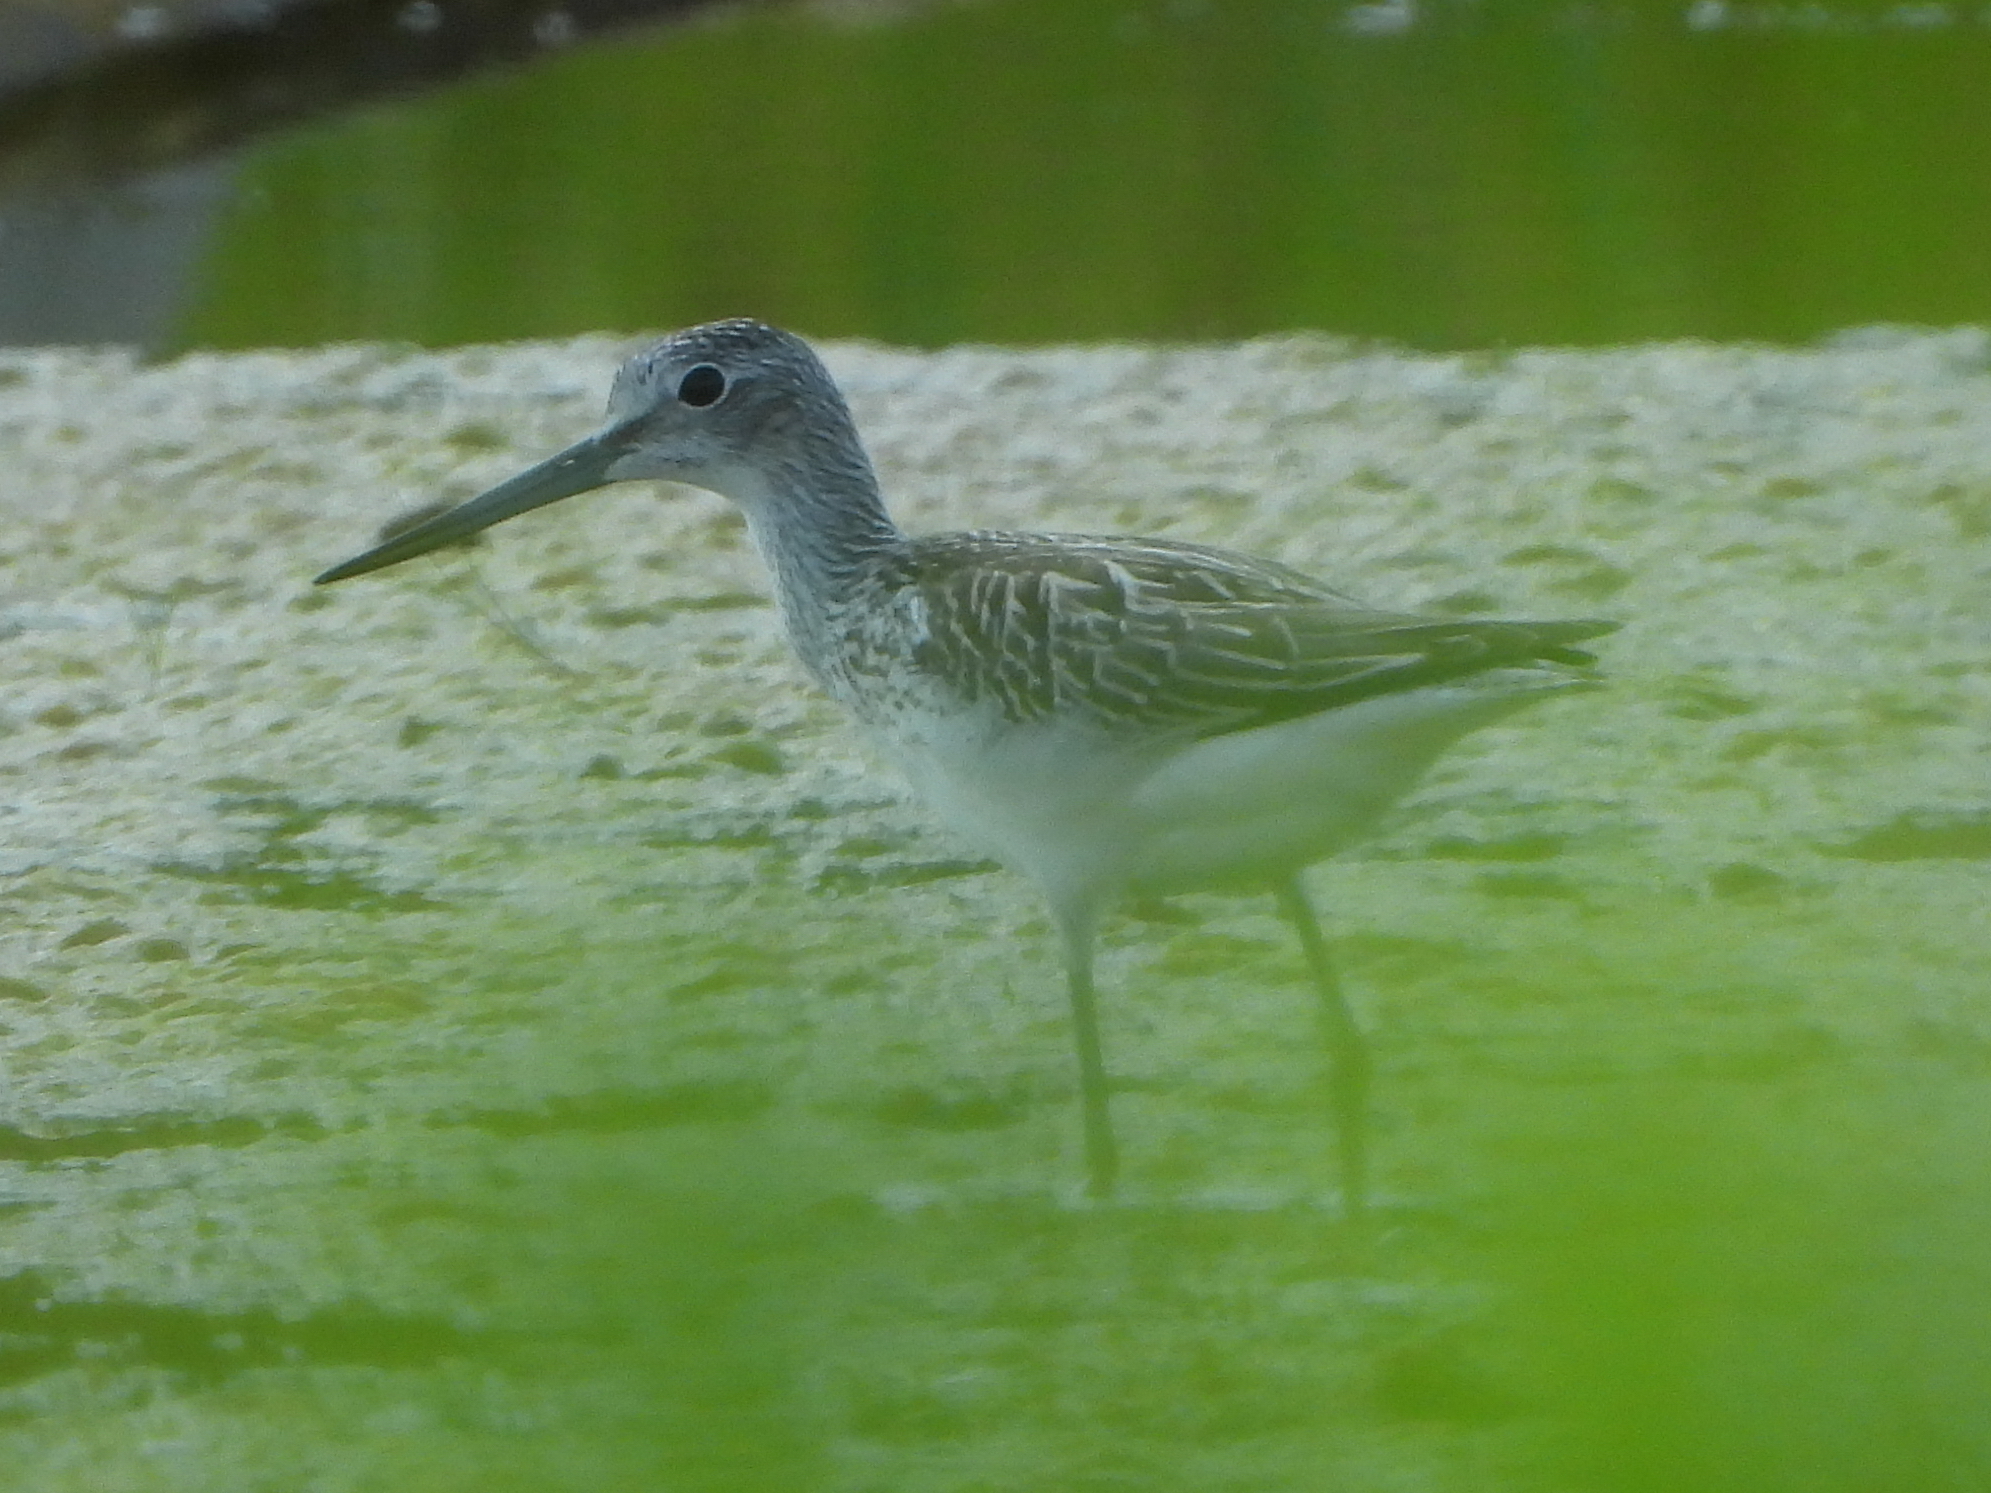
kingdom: Animalia
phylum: Chordata
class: Aves
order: Charadriiformes
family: Scolopacidae
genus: Tringa
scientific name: Tringa nebularia
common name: Common greenshank
